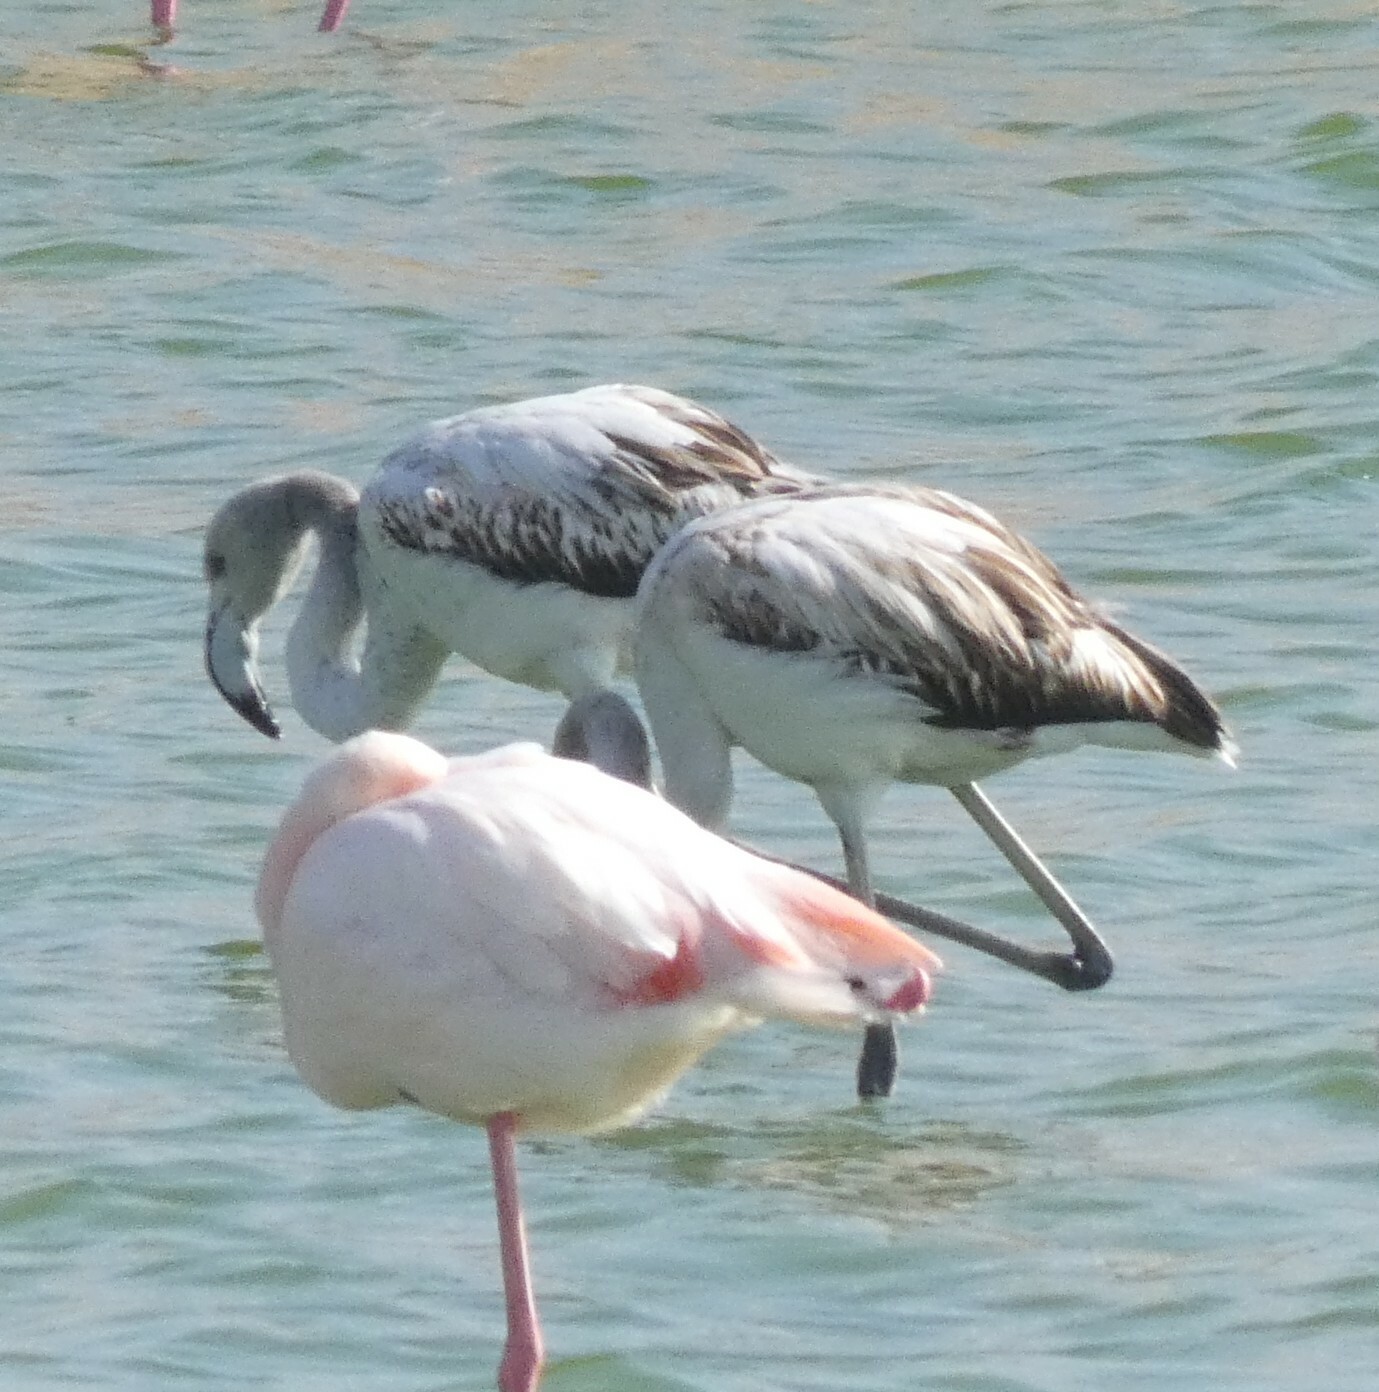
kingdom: Animalia
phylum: Chordata
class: Aves
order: Phoenicopteriformes
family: Phoenicopteridae
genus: Phoenicopterus
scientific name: Phoenicopterus roseus
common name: Greater flamingo
